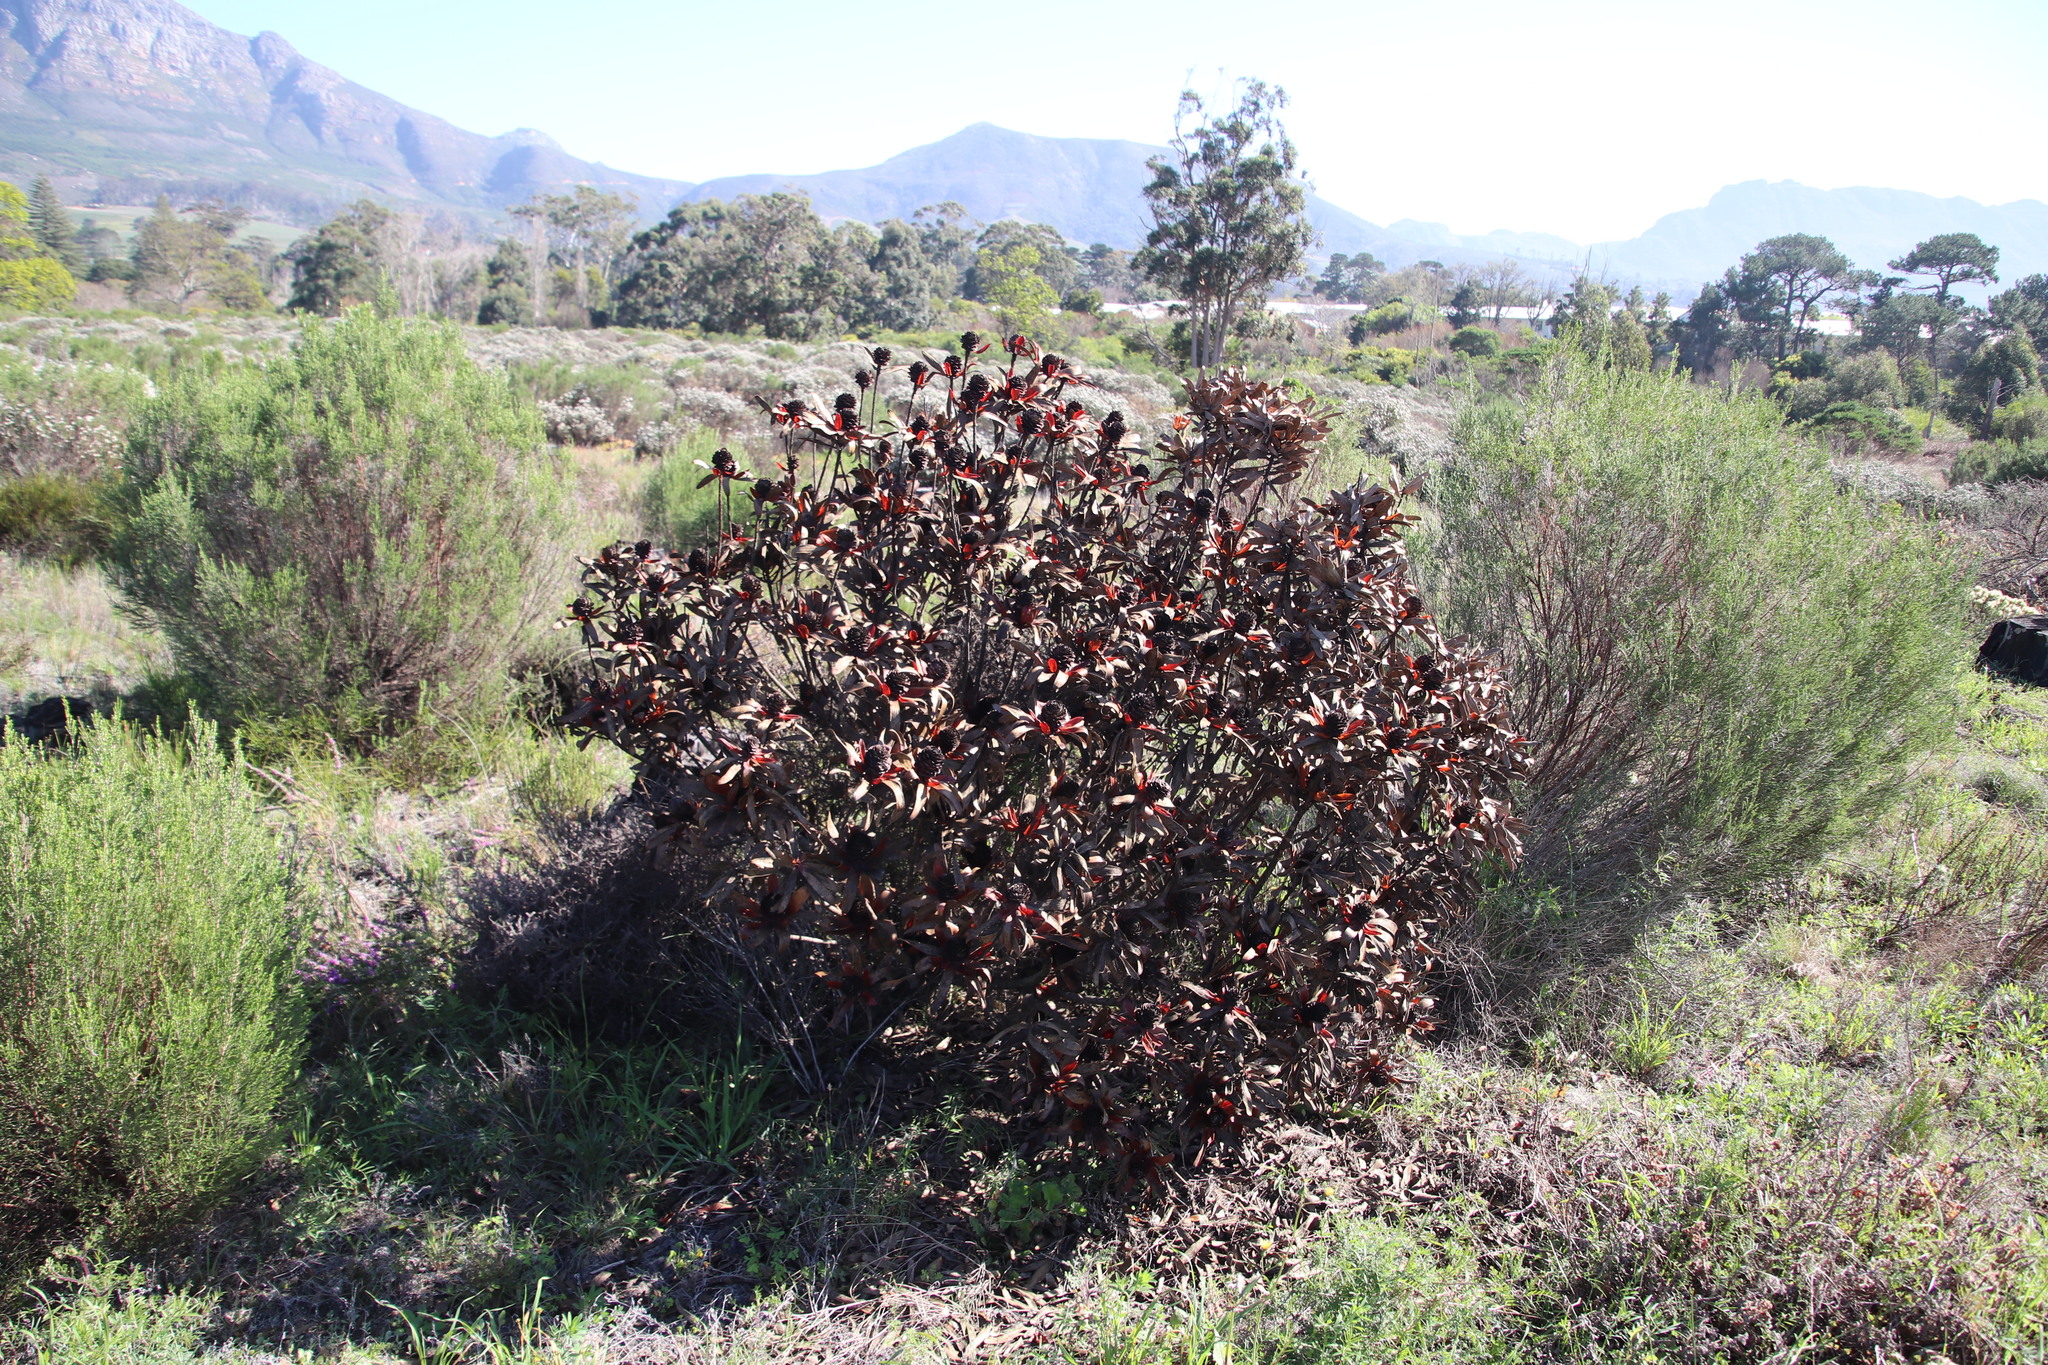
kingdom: Plantae
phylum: Tracheophyta
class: Magnoliopsida
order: Proteales
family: Proteaceae
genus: Leucadendron
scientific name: Leucadendron laureolum
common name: Golden sunshinebush
